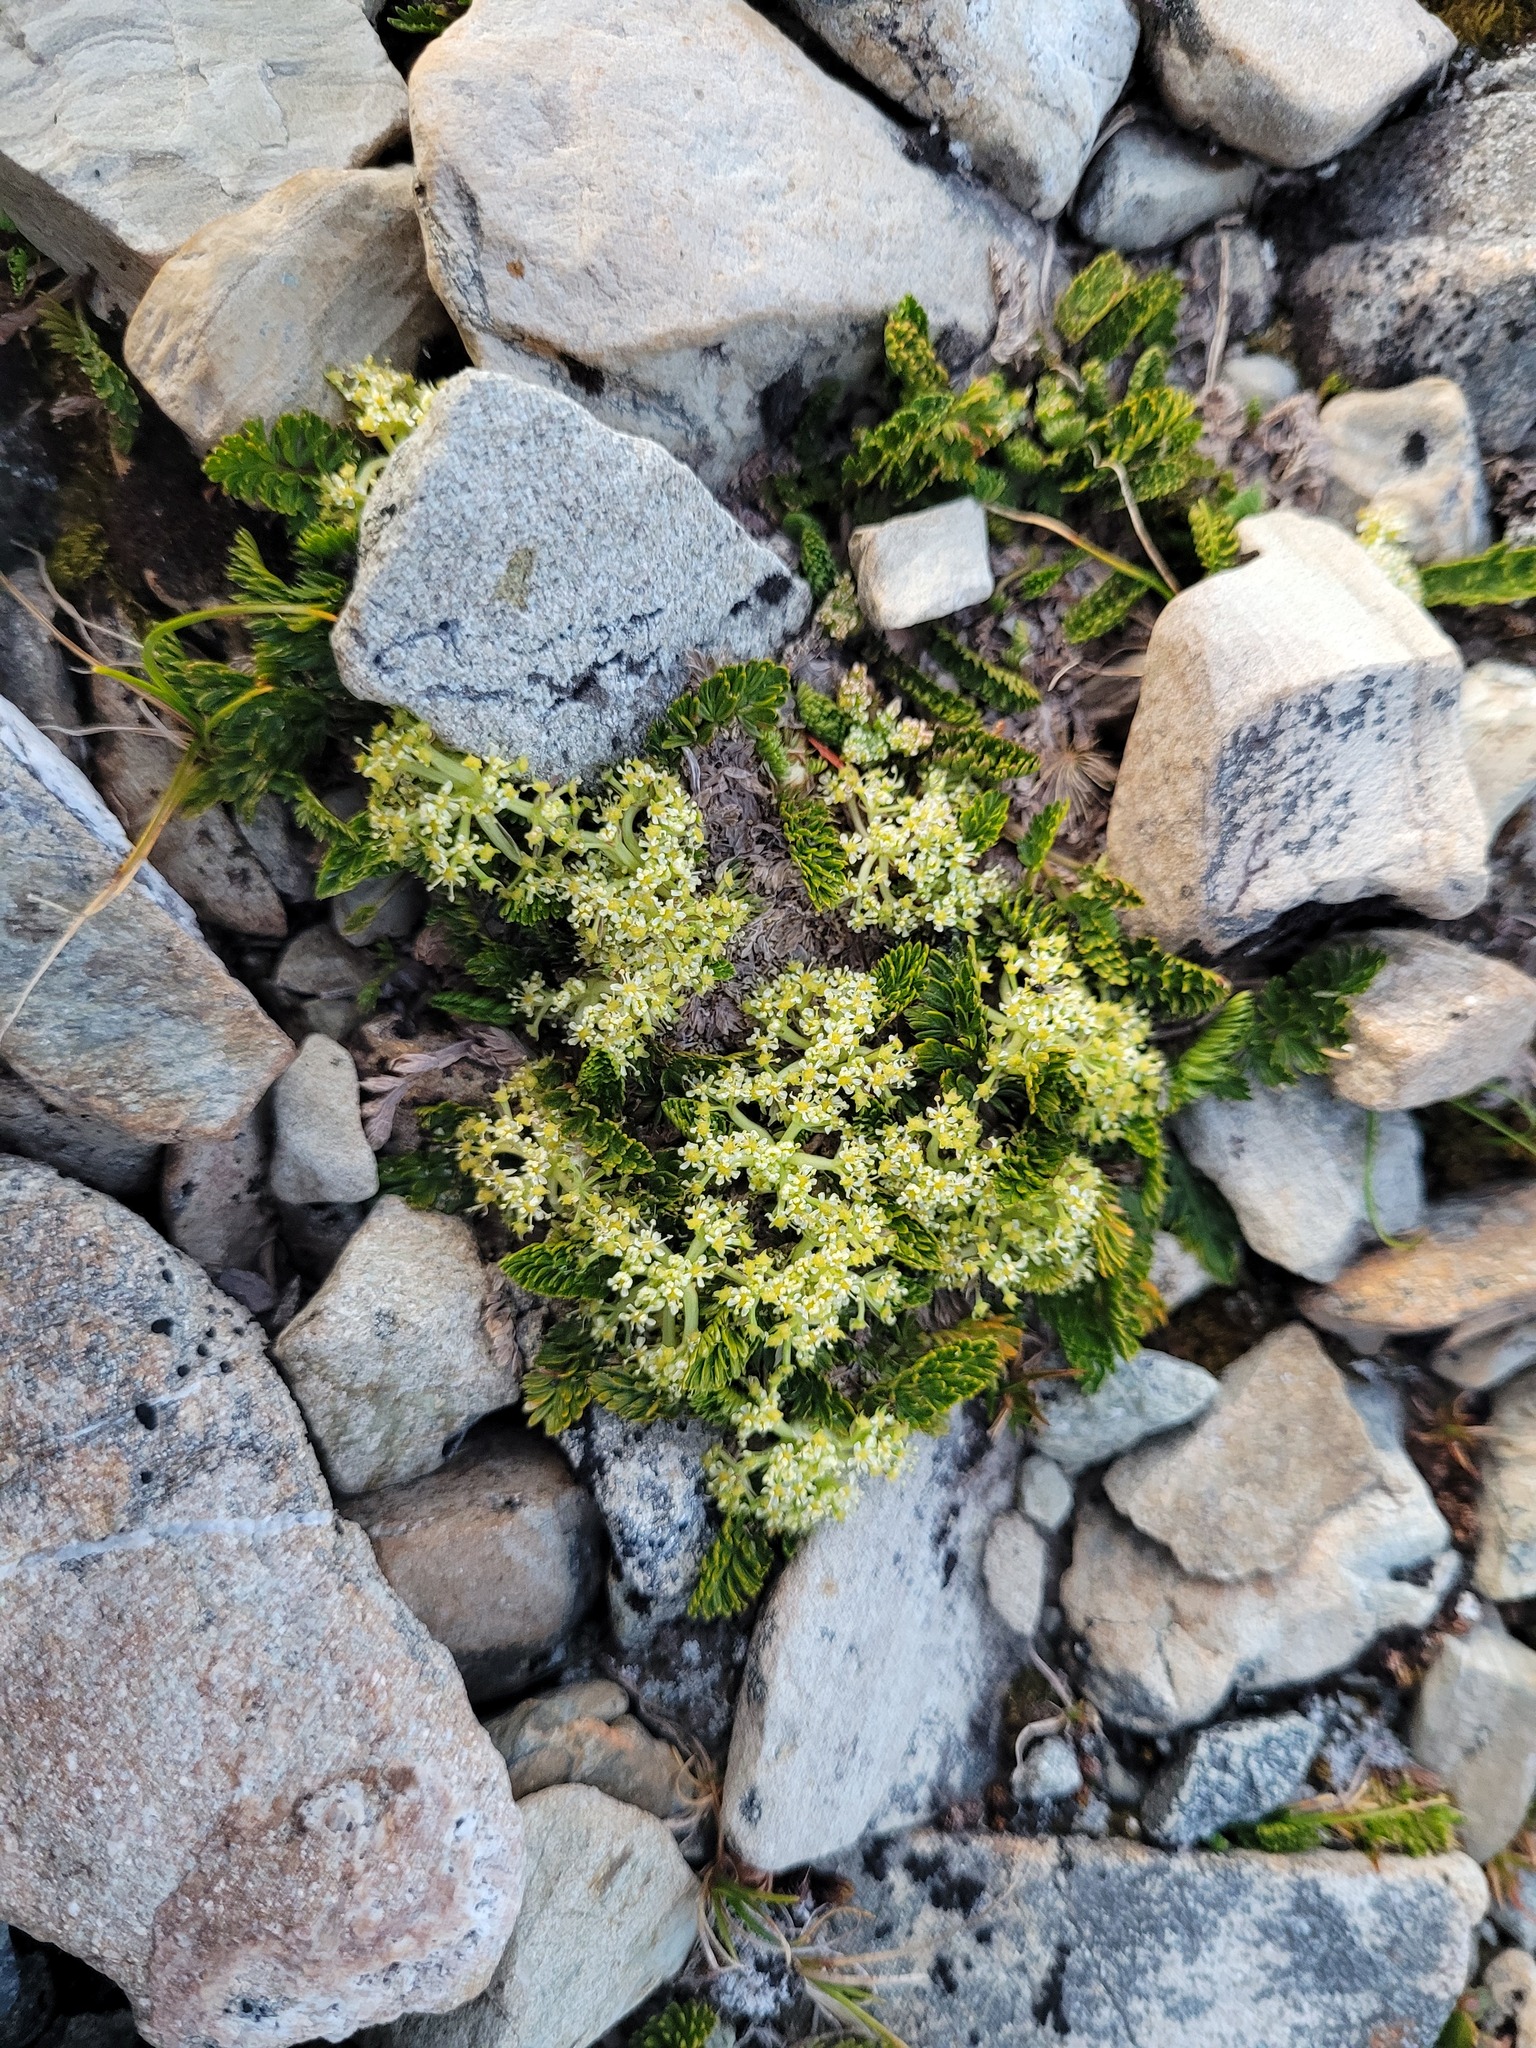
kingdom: Plantae
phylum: Tracheophyta
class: Magnoliopsida
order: Apiales
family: Apiaceae
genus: Anisotome
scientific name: Anisotome imbricata
